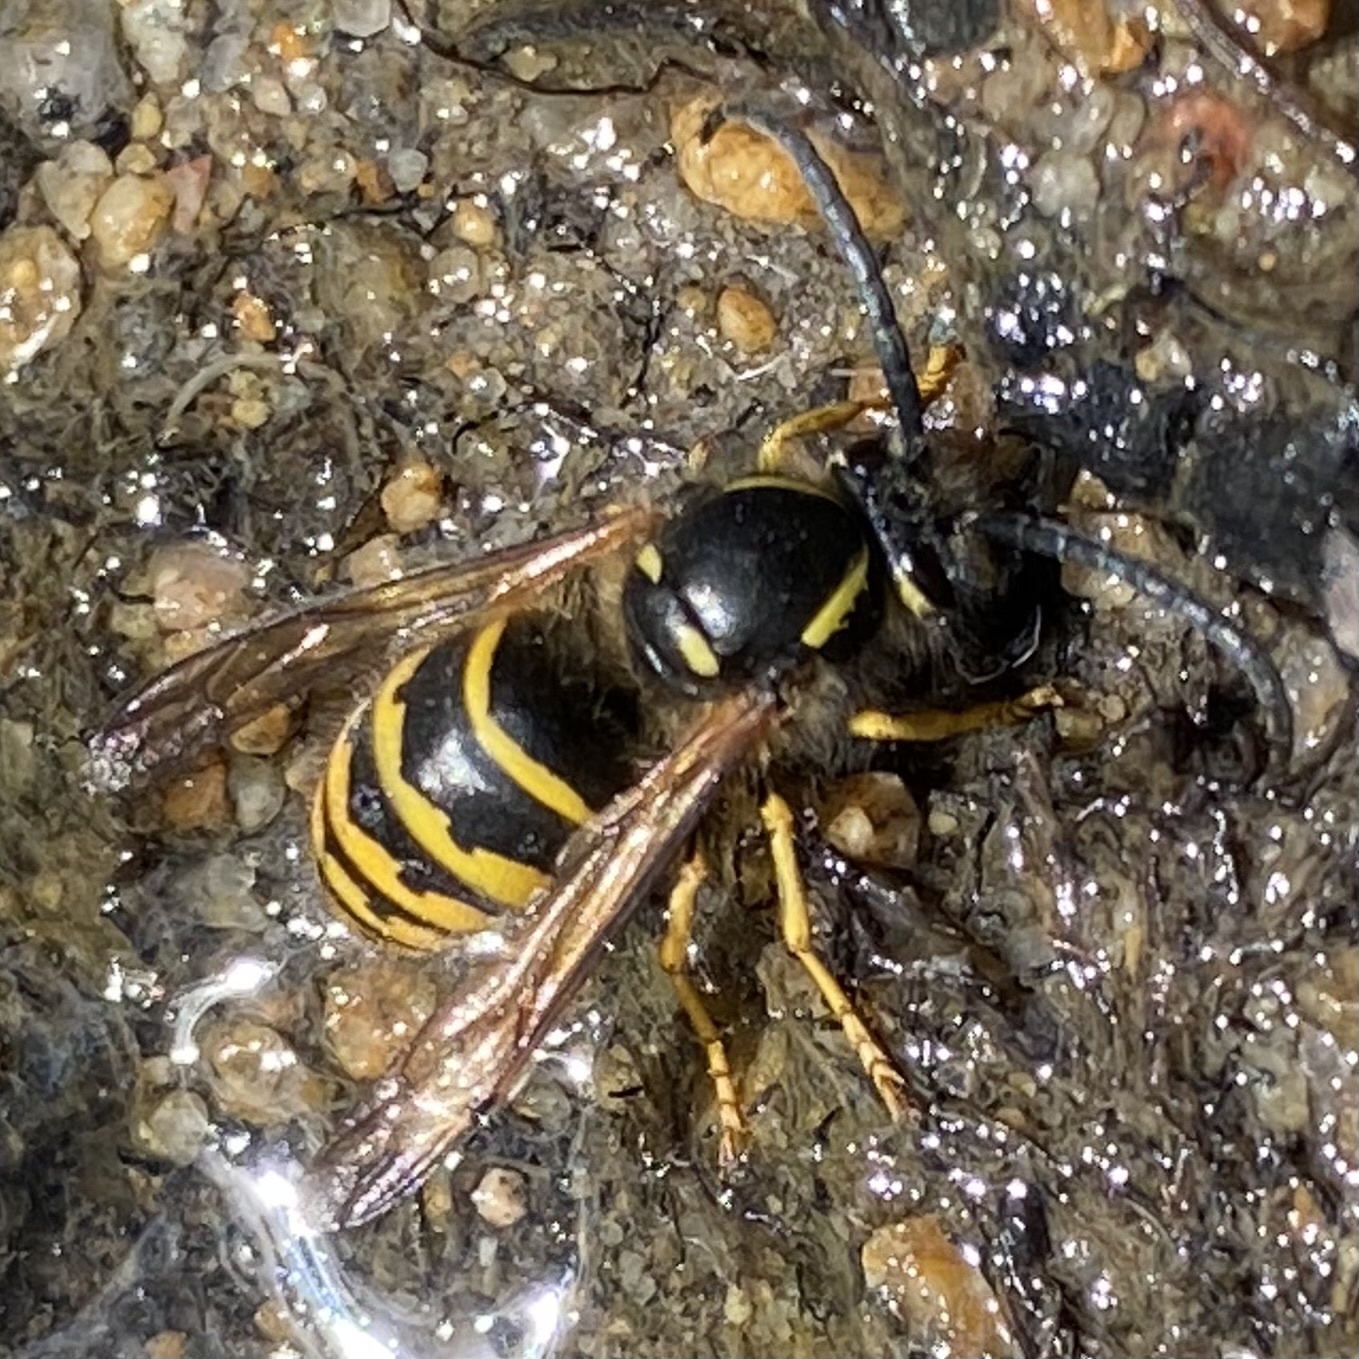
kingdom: Animalia
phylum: Arthropoda
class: Insecta
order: Hymenoptera
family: Vespidae
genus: Dolichovespula
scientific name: Dolichovespula
